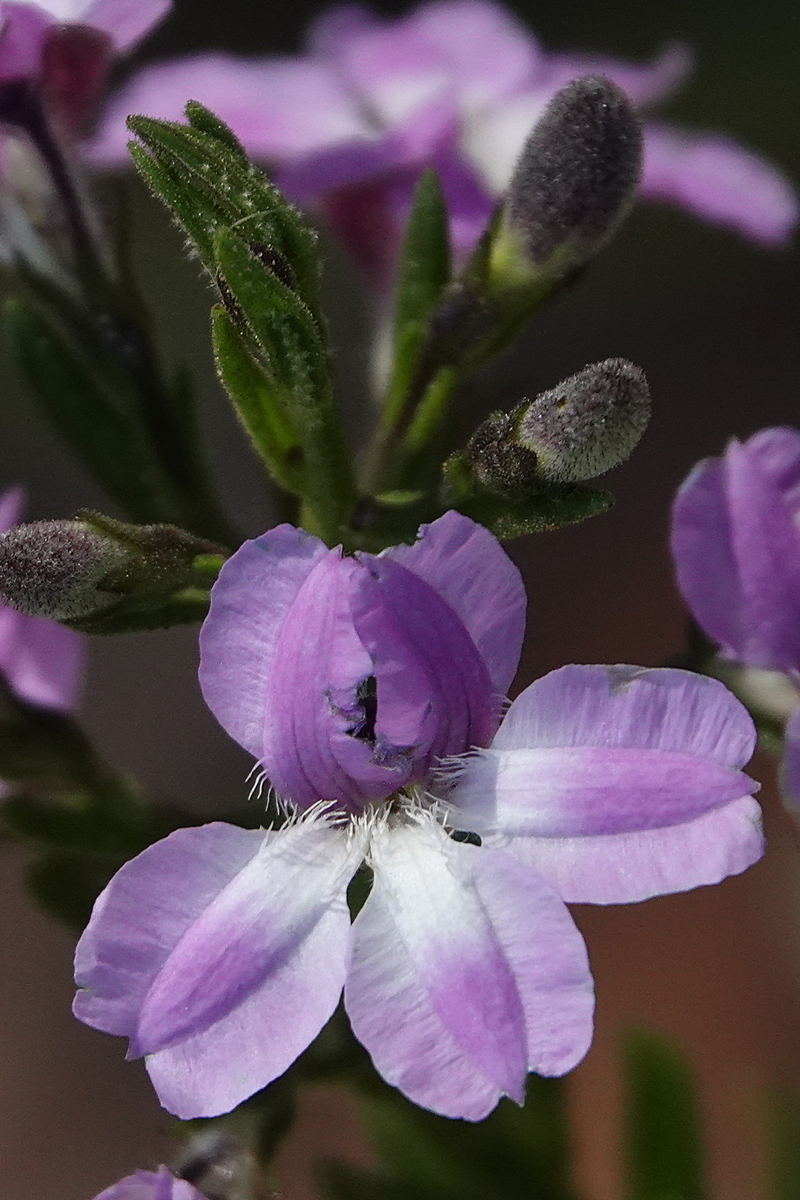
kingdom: Plantae
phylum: Tracheophyta
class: Magnoliopsida
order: Asterales
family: Goodeniaceae
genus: Goodenia
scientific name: Goodenia barbata
